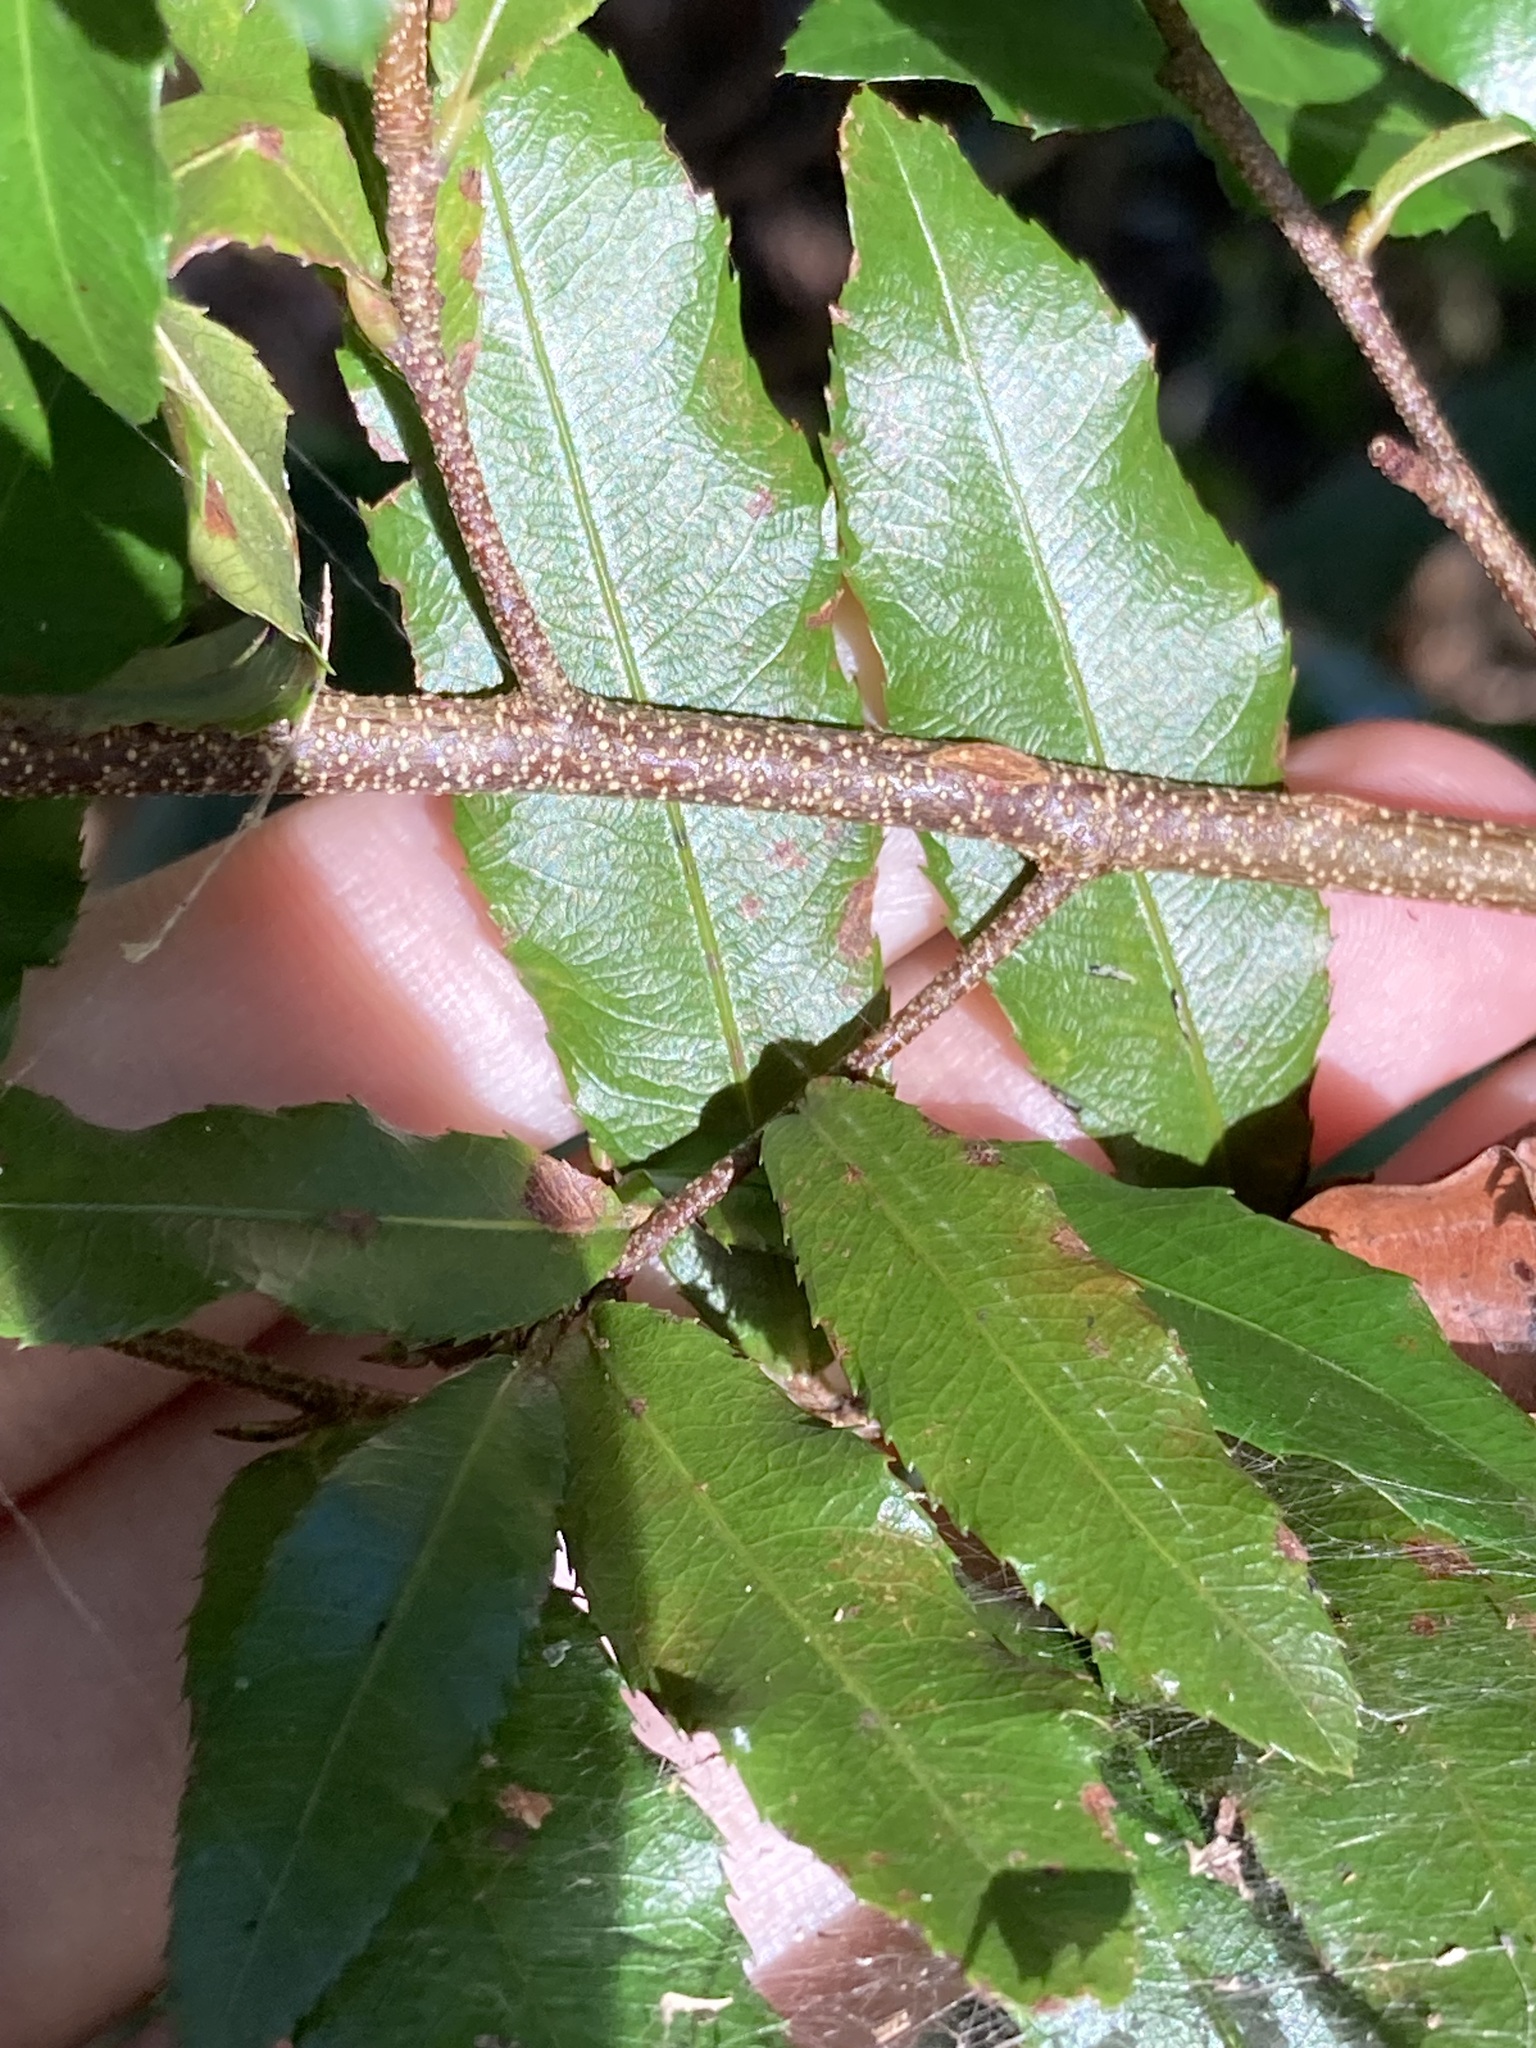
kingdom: Plantae
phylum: Tracheophyta
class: Magnoliopsida
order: Malpighiales
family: Ochnaceae
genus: Ochna
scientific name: Ochna serrulata
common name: Mickey mouse plant
